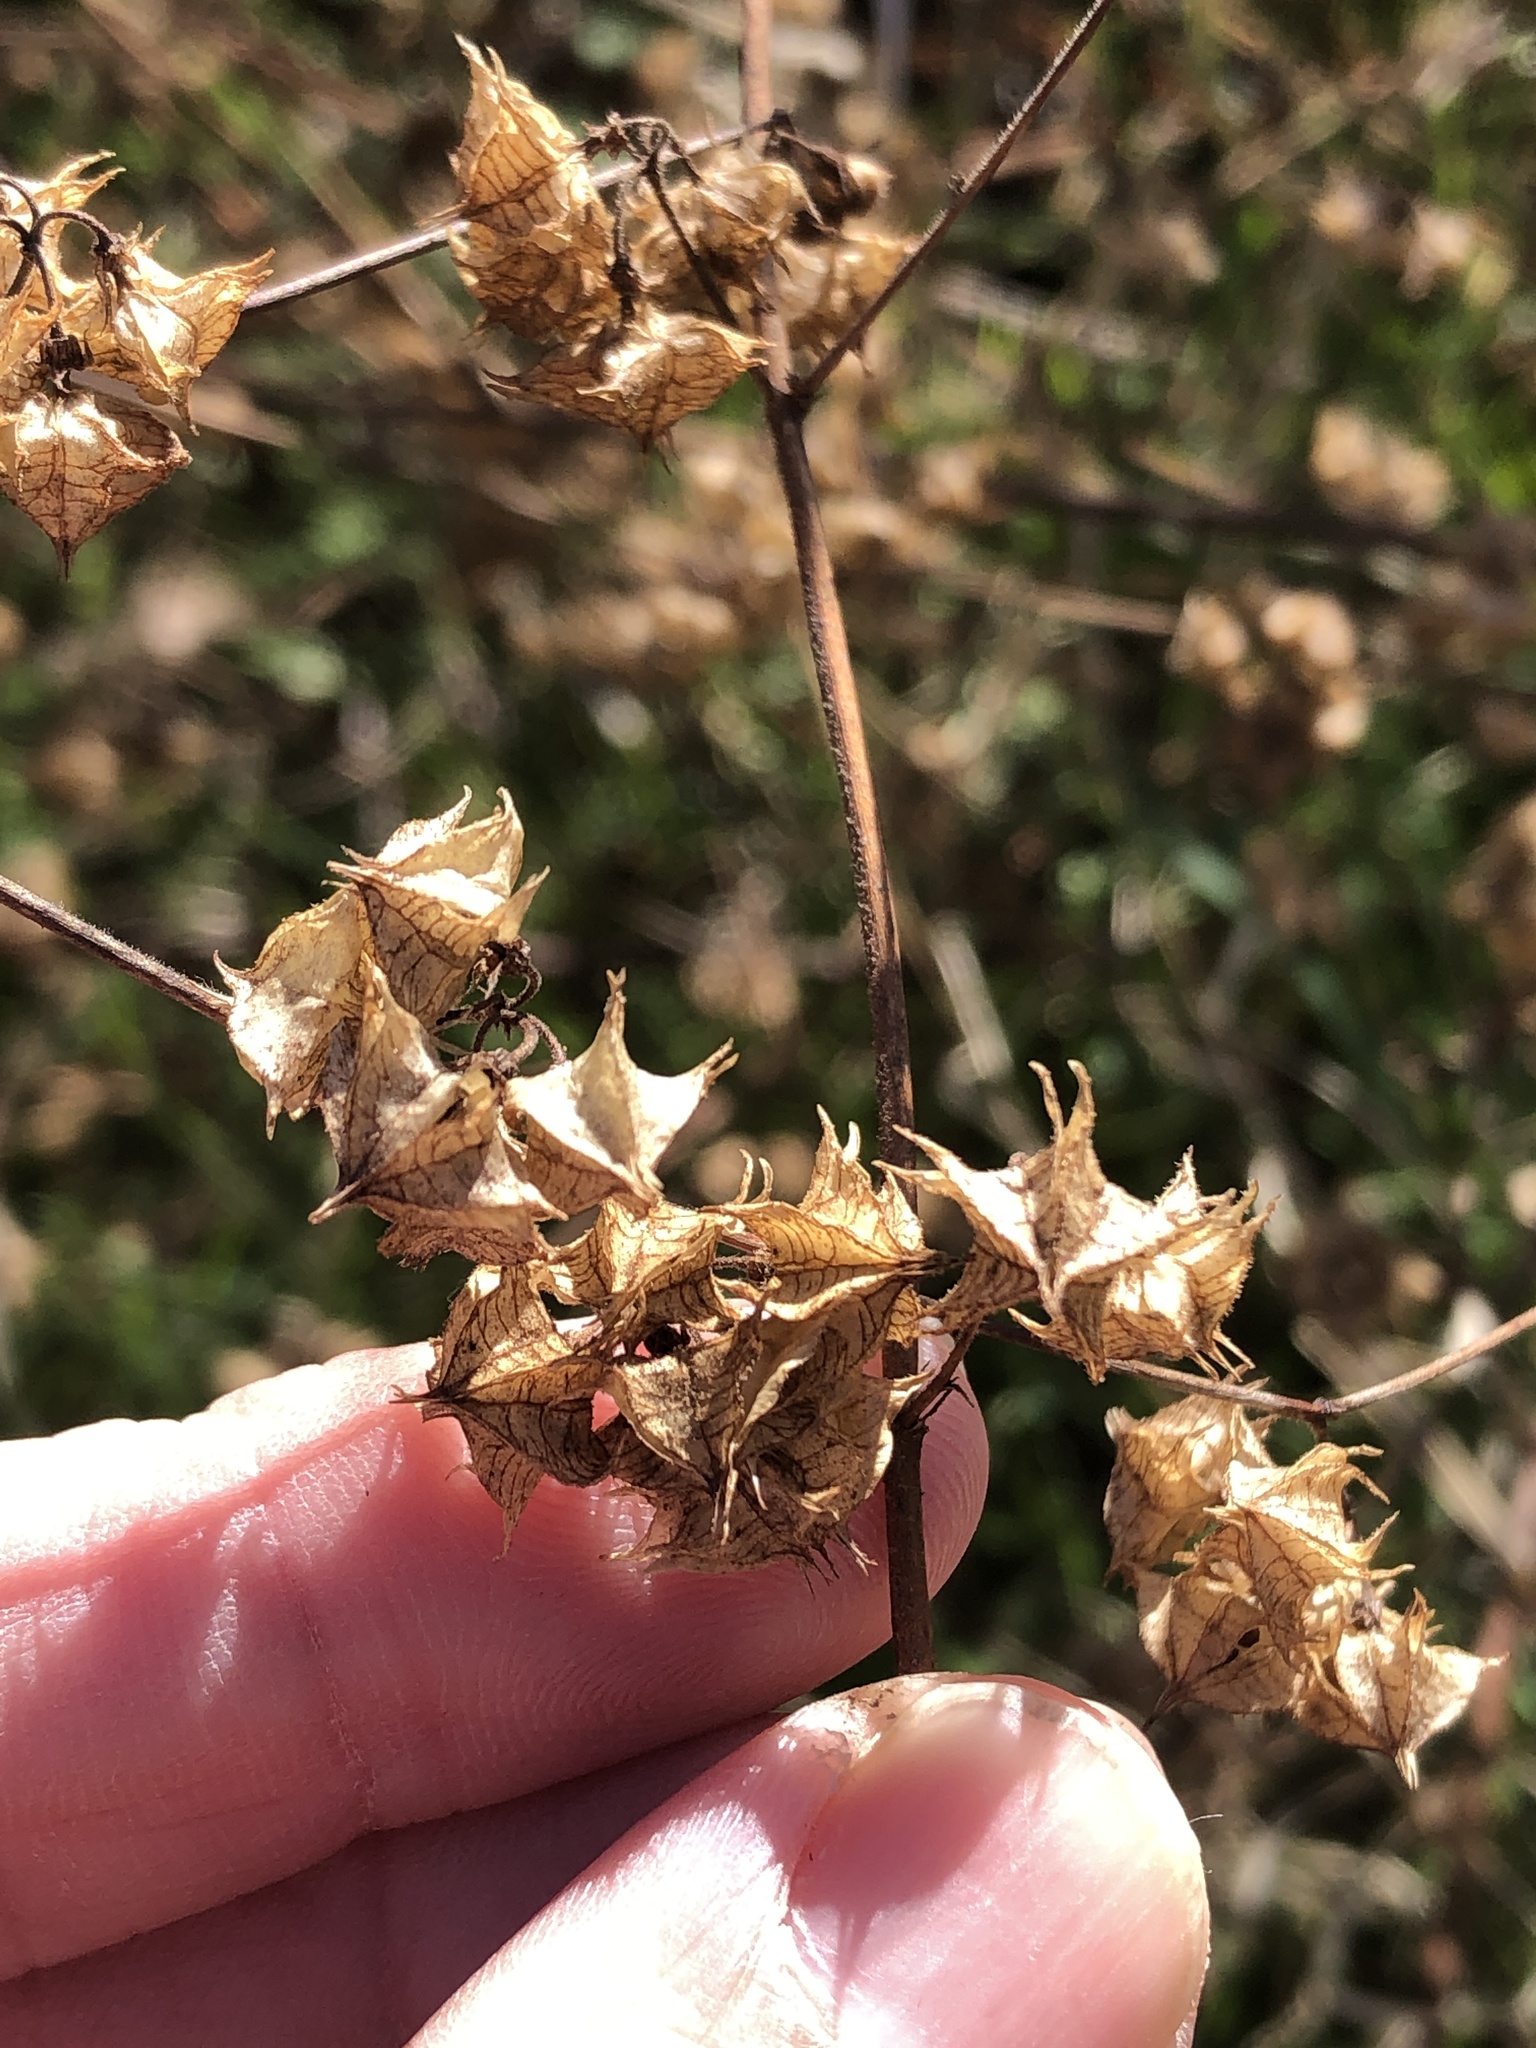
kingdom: Plantae
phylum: Tracheophyta
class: Magnoliopsida
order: Malvales
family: Malvaceae
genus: Melochia
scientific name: Melochia pyramidata
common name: Pyramidflower
